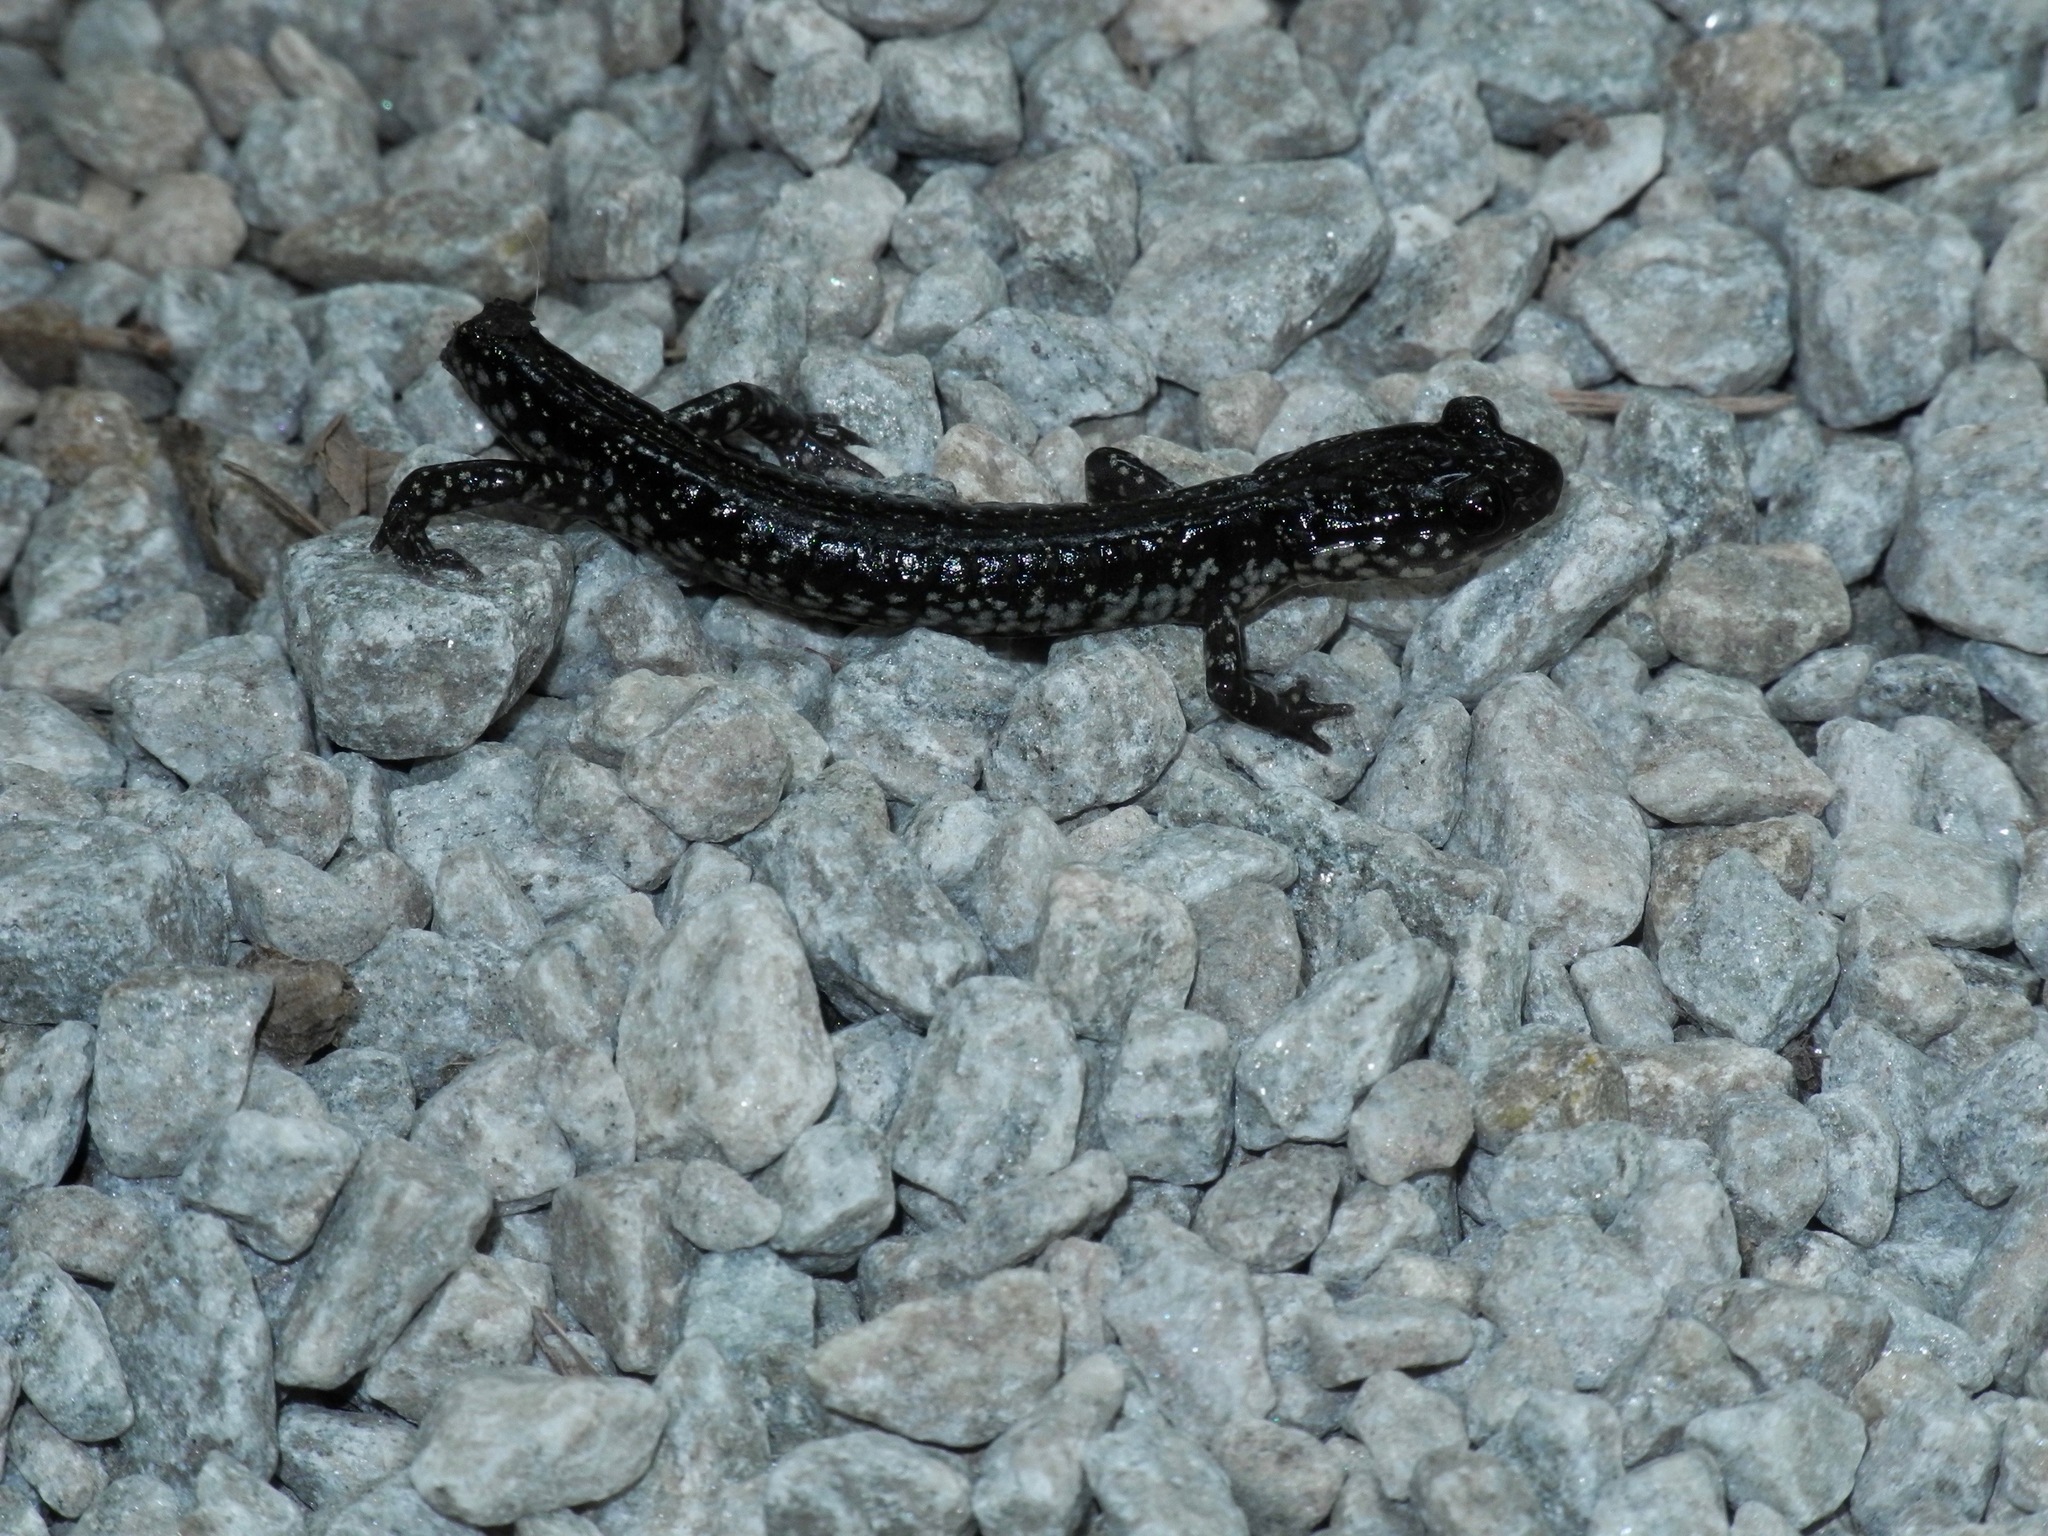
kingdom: Animalia
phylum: Chordata
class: Amphibia
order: Caudata
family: Plethodontidae
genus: Plethodon
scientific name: Plethodon
